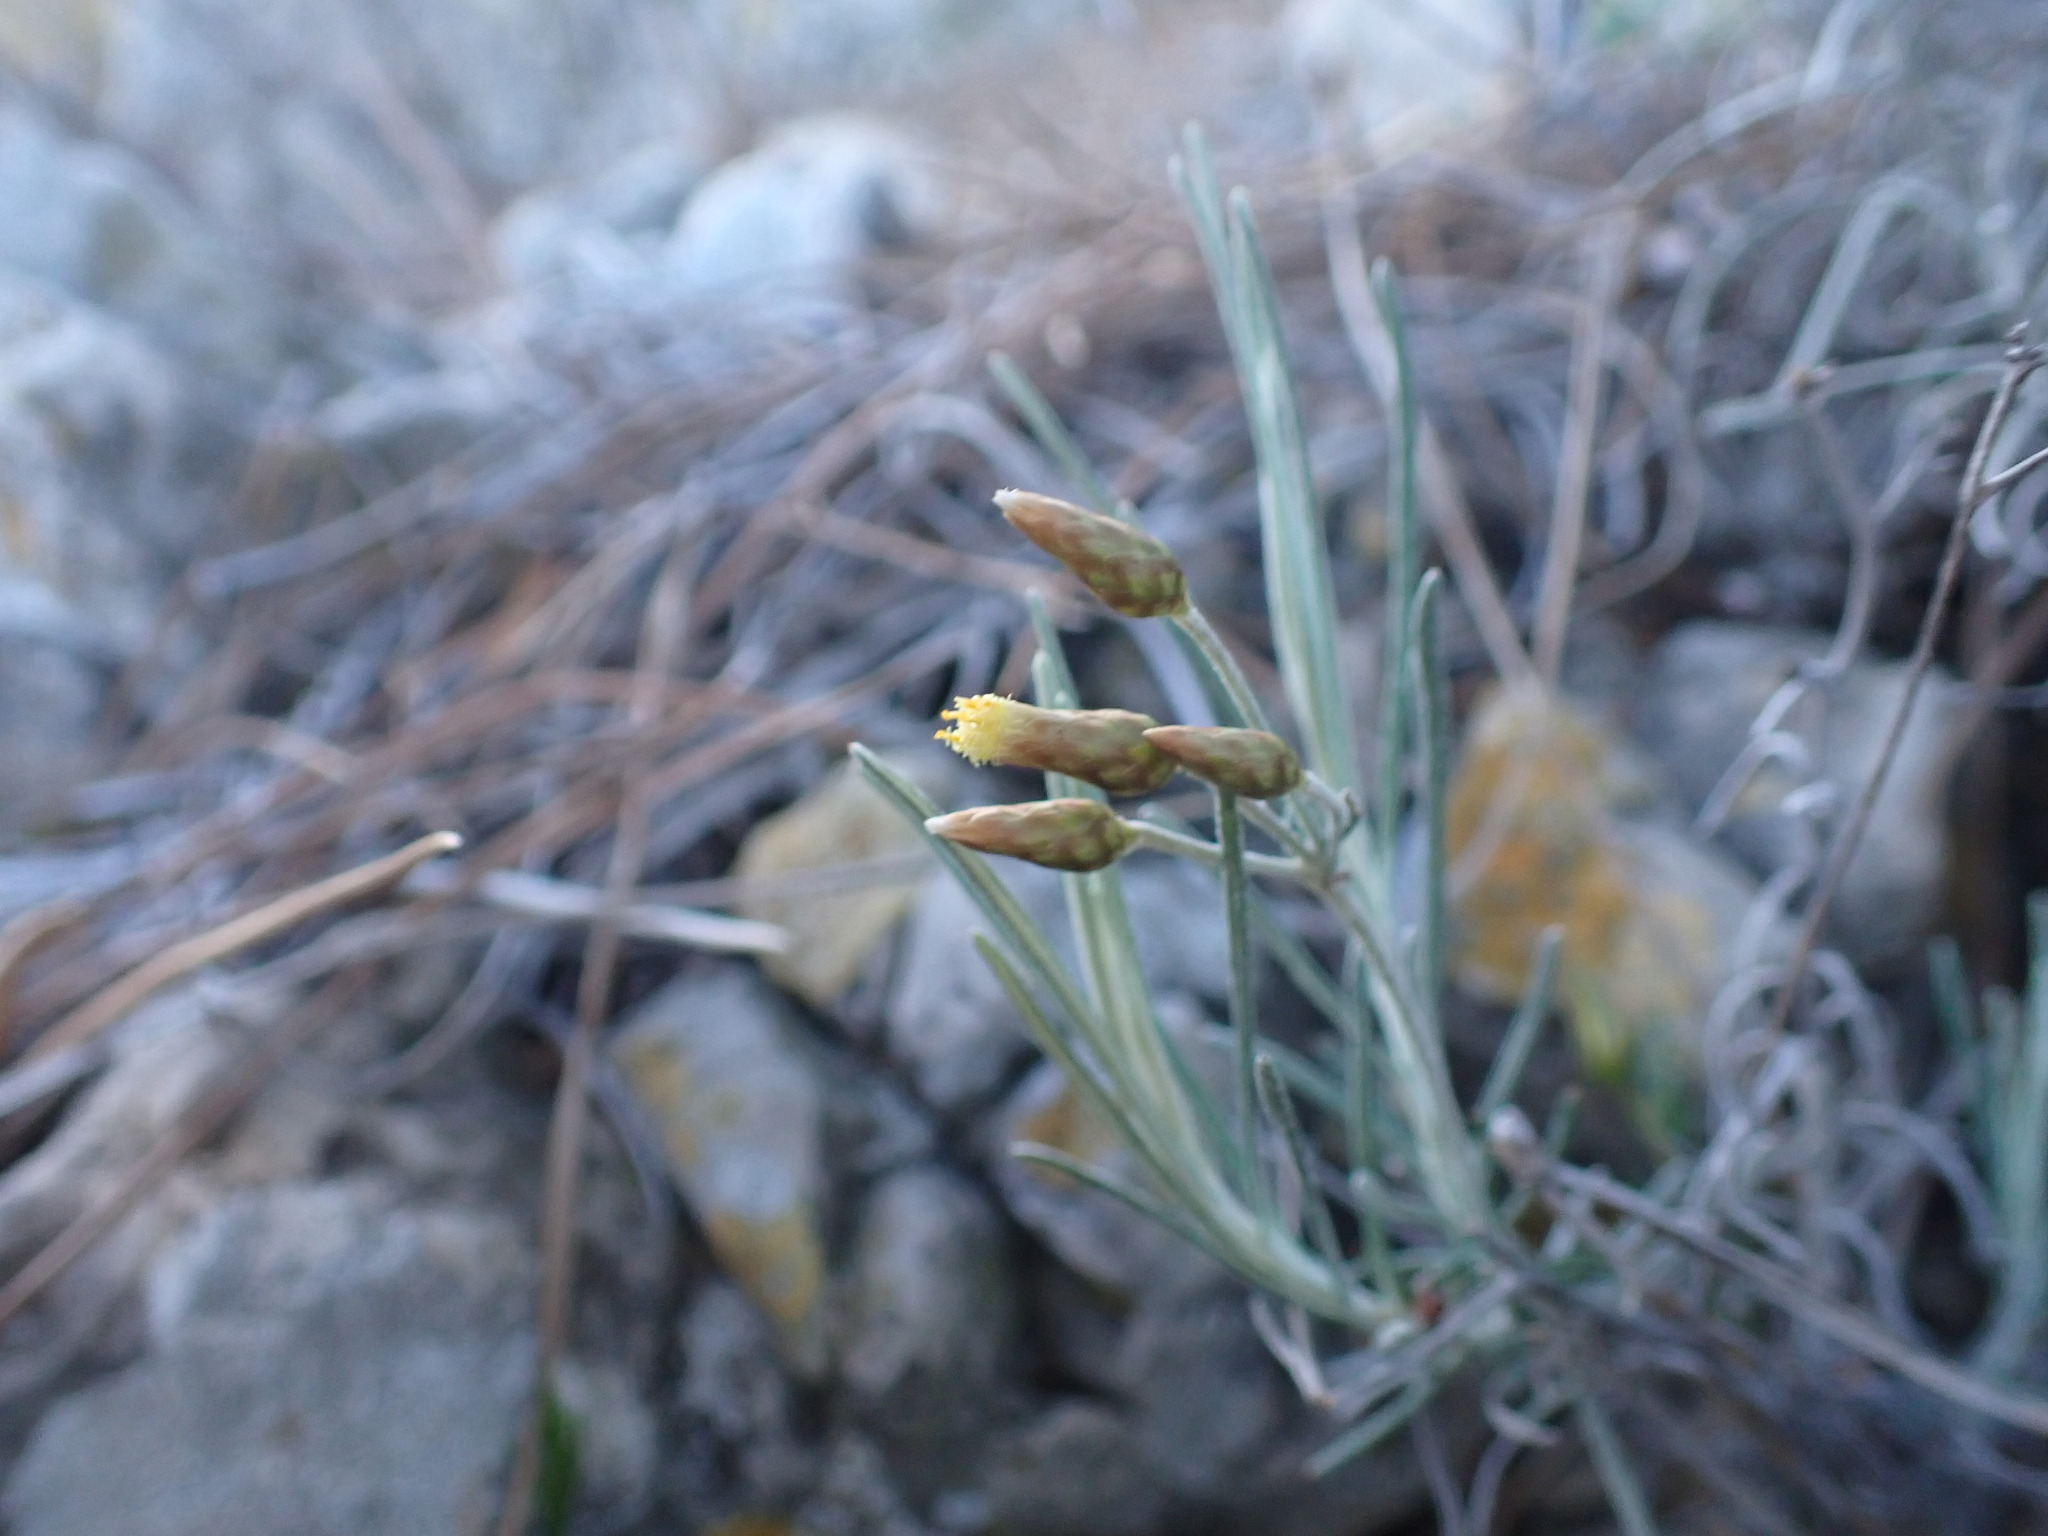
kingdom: Plantae
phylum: Tracheophyta
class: Magnoliopsida
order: Asterales
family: Asteraceae
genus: Phagnalon
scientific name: Phagnalon sordidum
